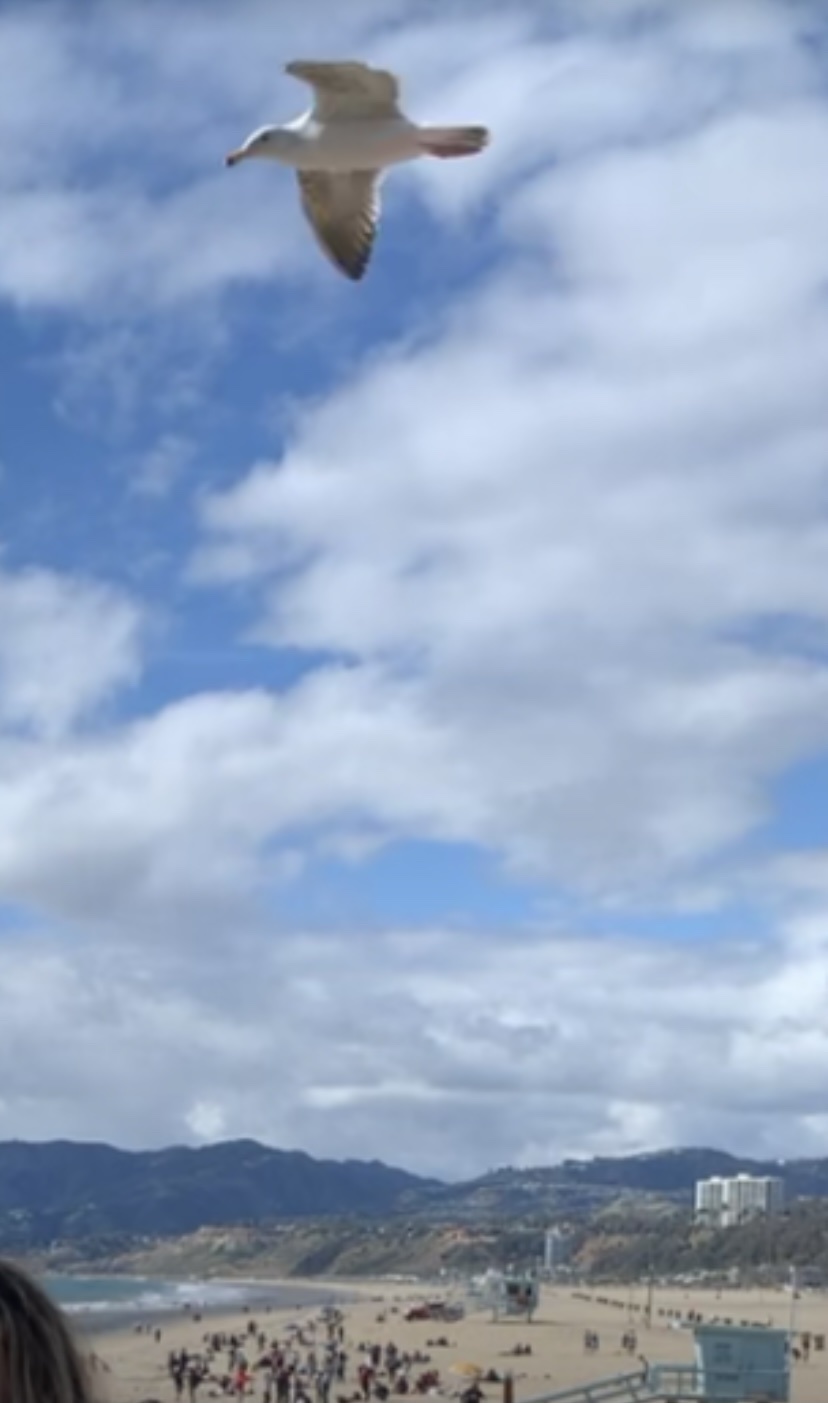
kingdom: Animalia
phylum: Chordata
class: Aves
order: Charadriiformes
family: Laridae
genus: Larus
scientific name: Larus occidentalis
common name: Western gull
